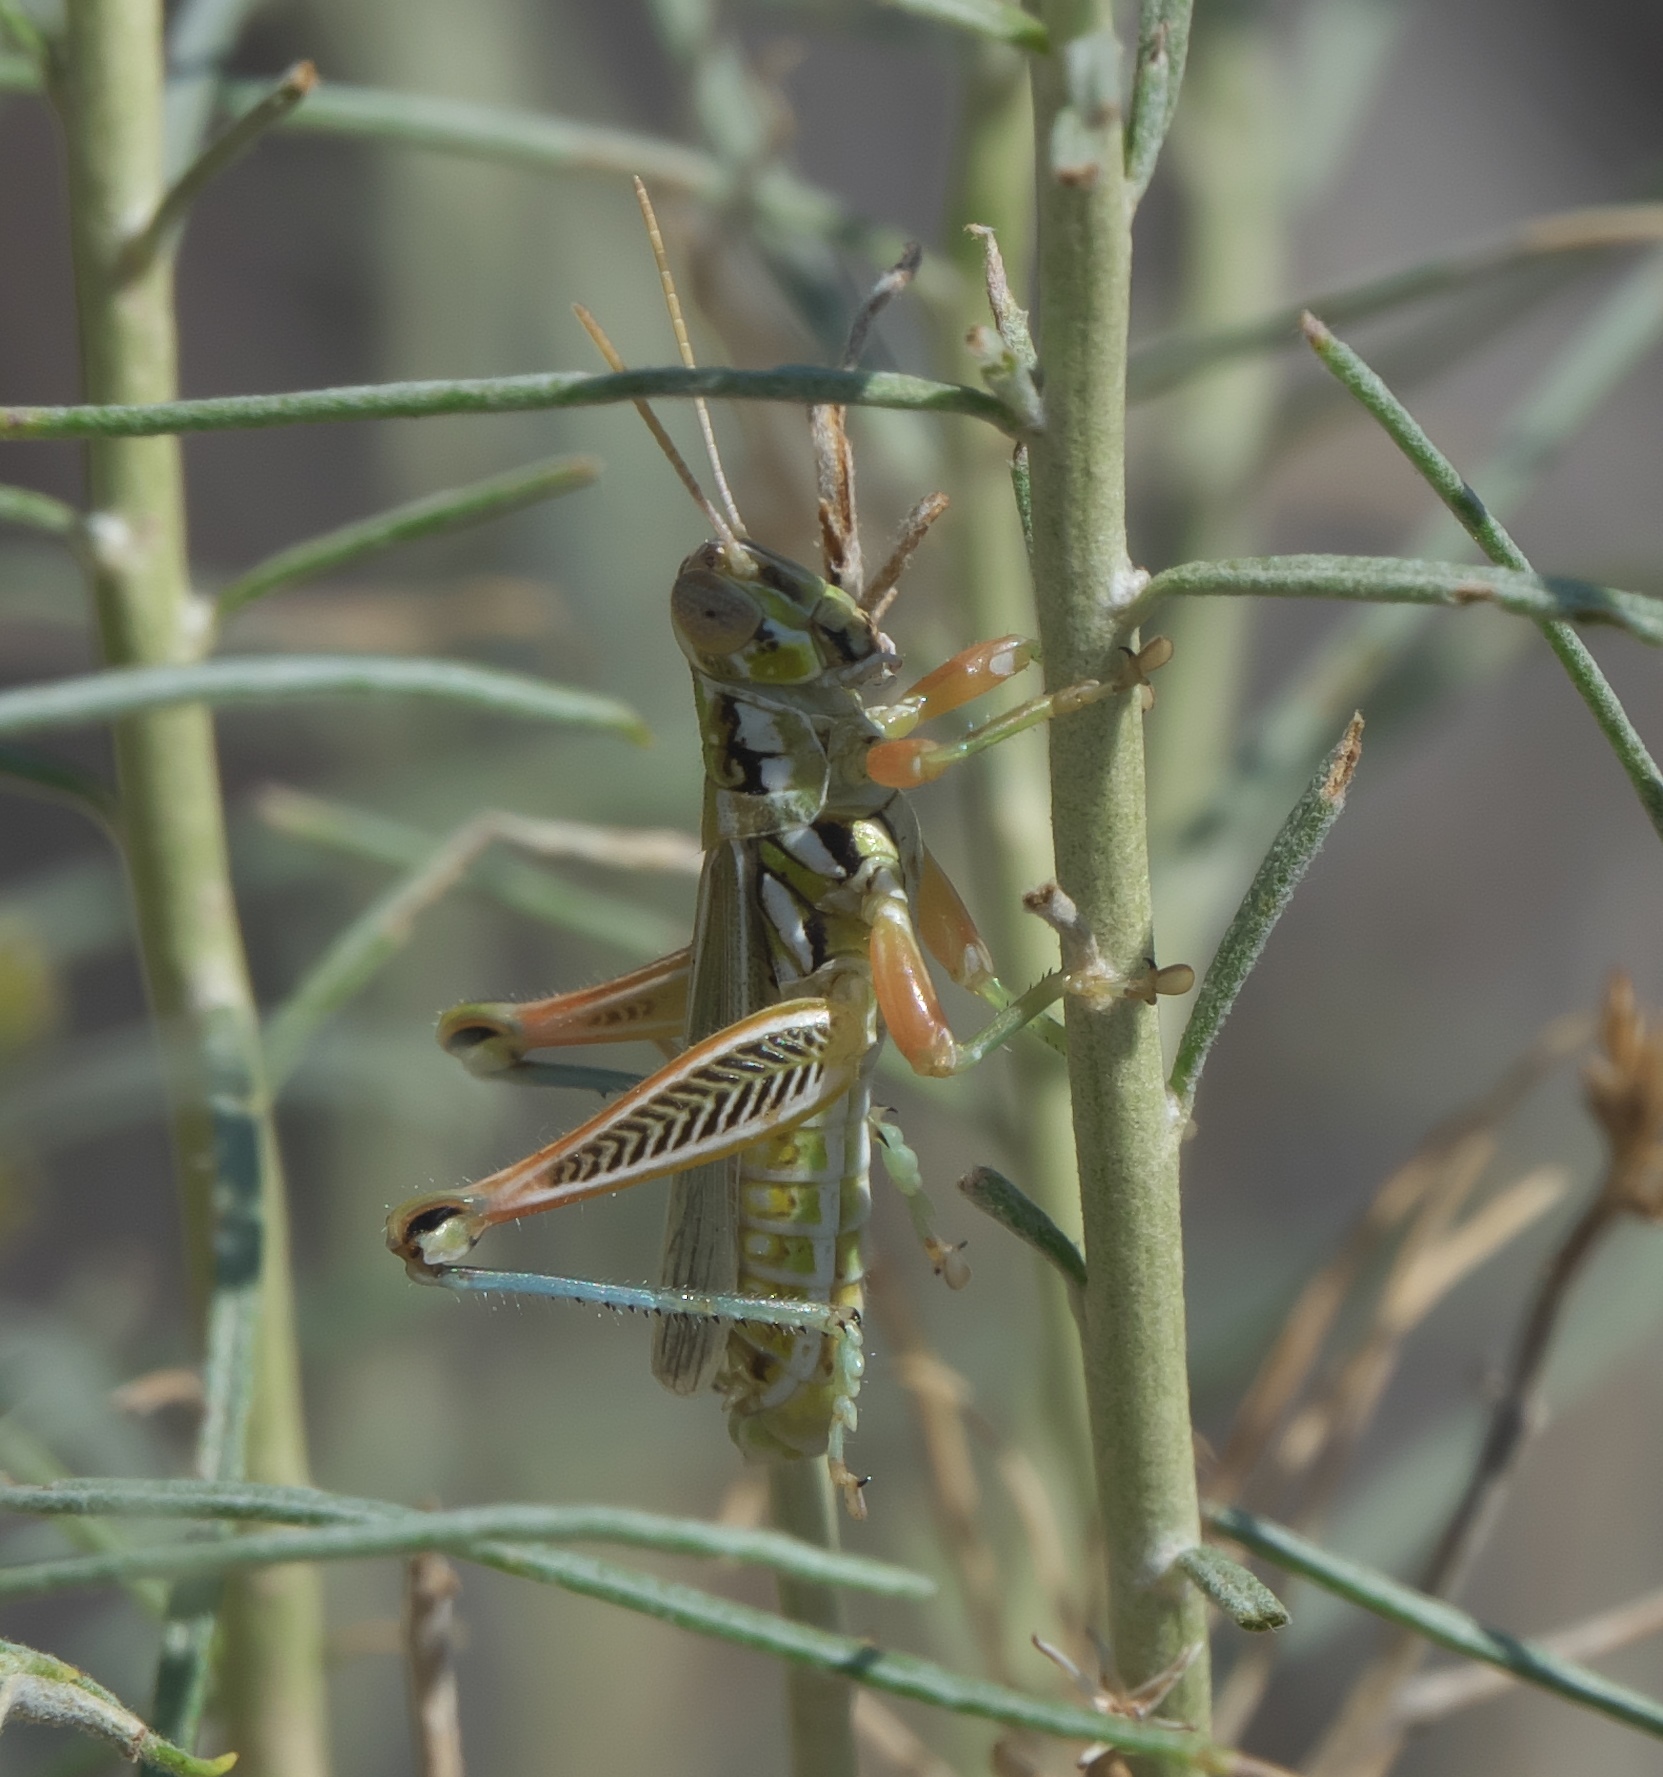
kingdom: Animalia
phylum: Arthropoda
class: Insecta
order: Orthoptera
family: Acrididae
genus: Hesperotettix
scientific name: Hesperotettix viridis
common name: Meadow purple-striped grasshopper
